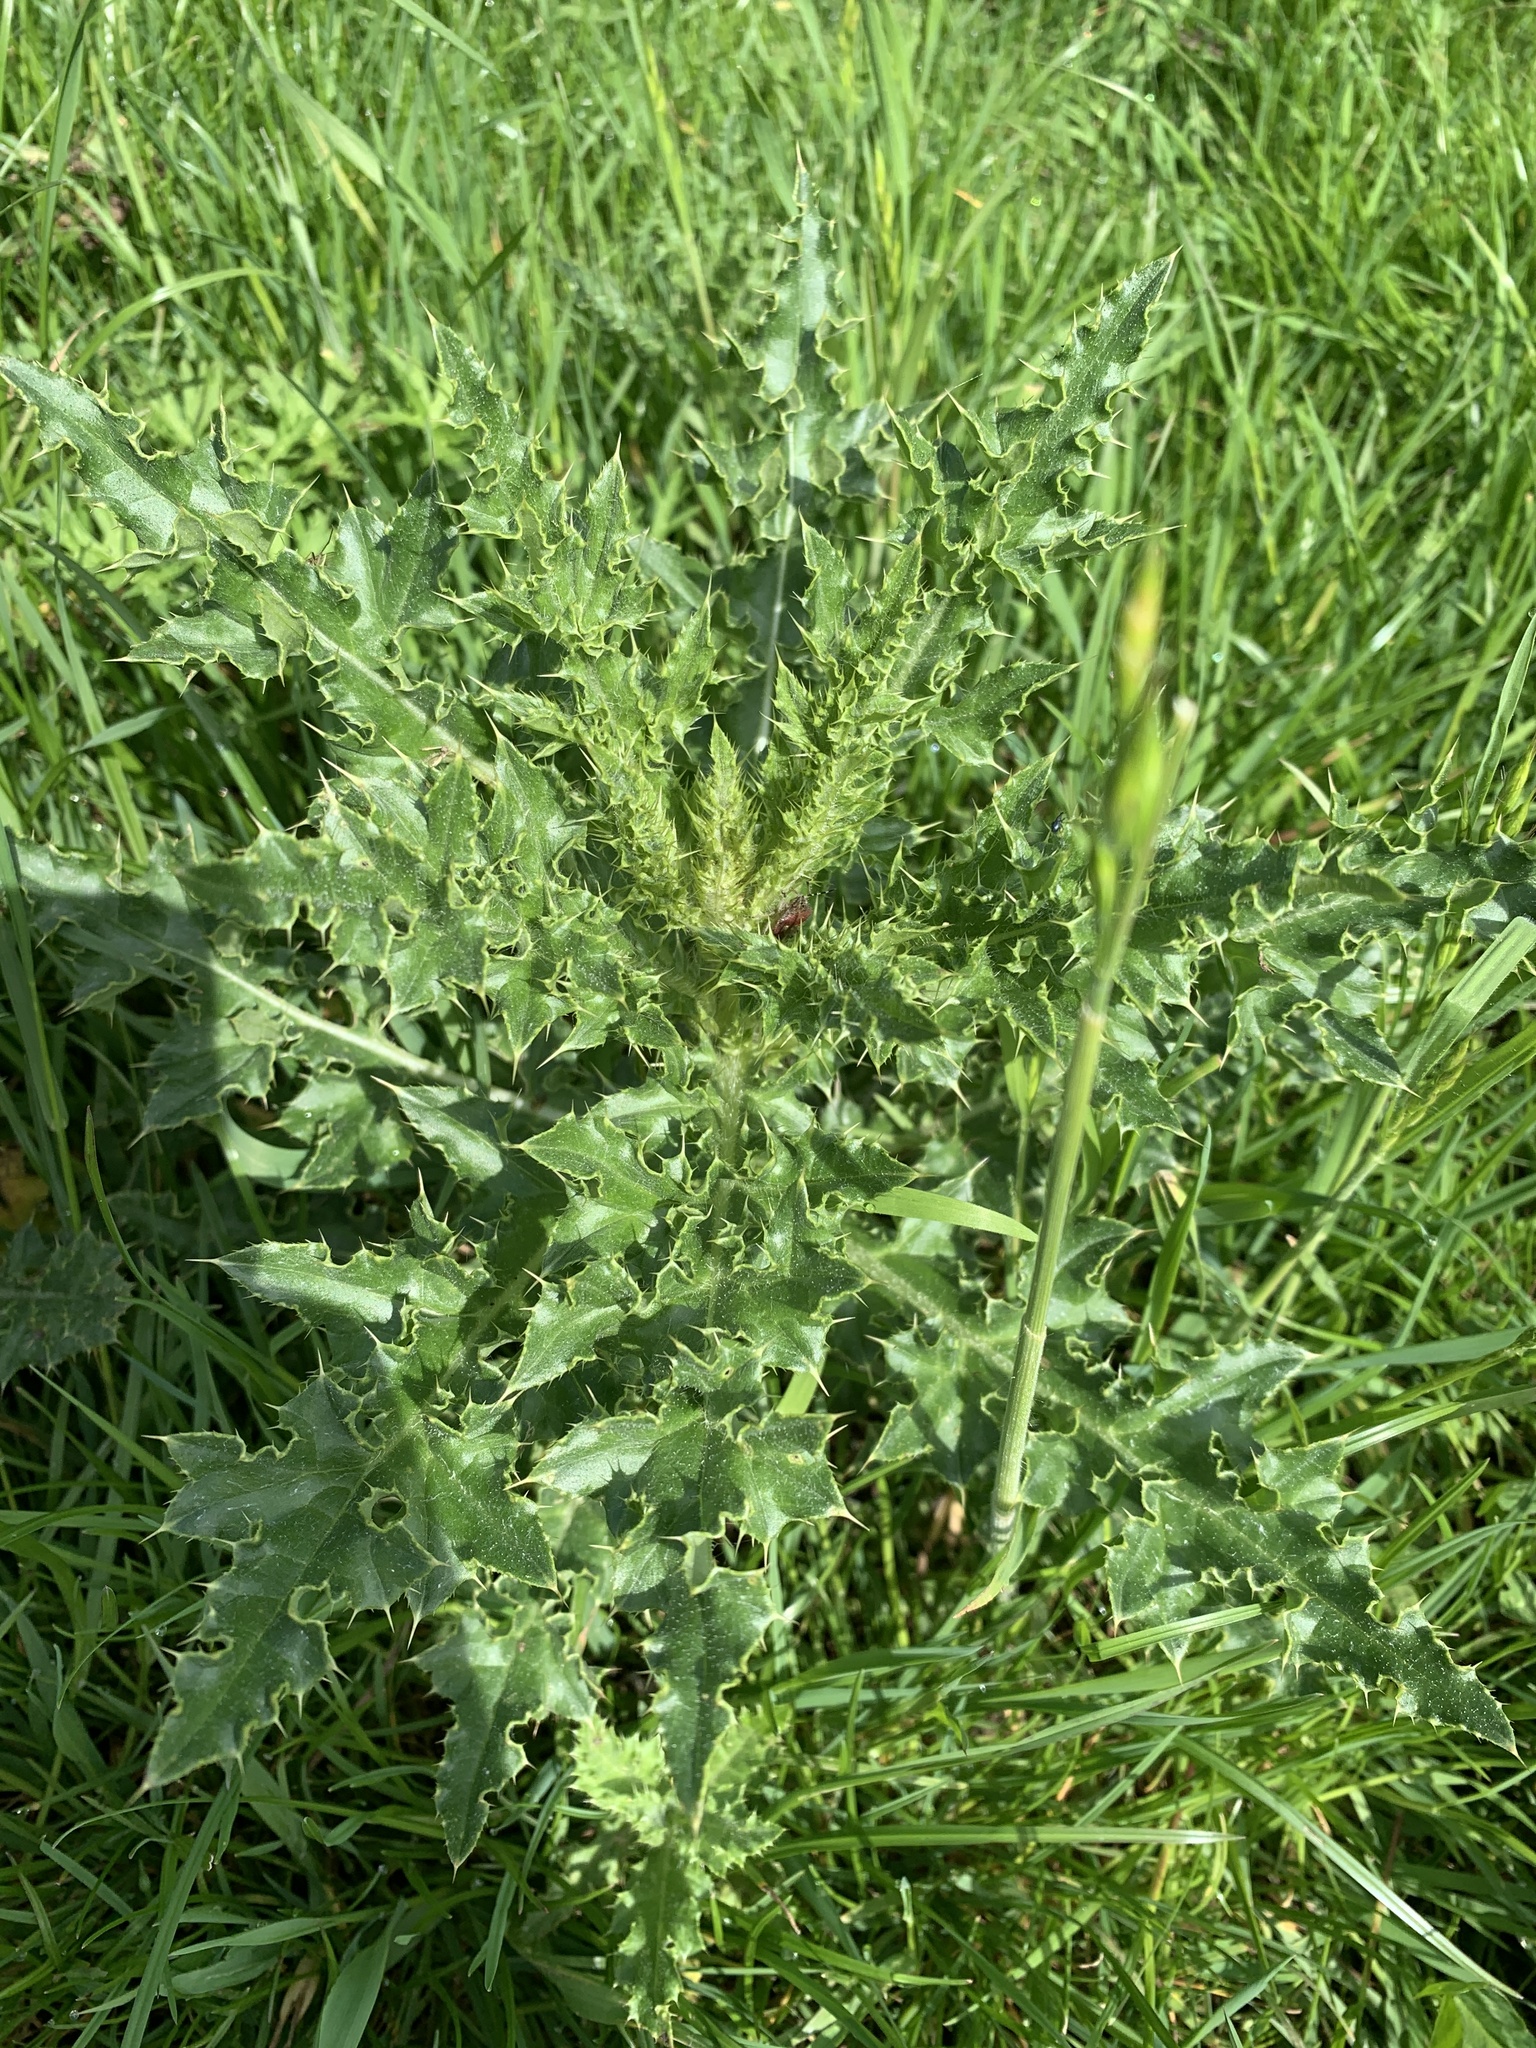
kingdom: Plantae
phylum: Tracheophyta
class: Magnoliopsida
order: Asterales
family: Asteraceae
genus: Cirsium
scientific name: Cirsium arvense
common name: Creeping thistle
